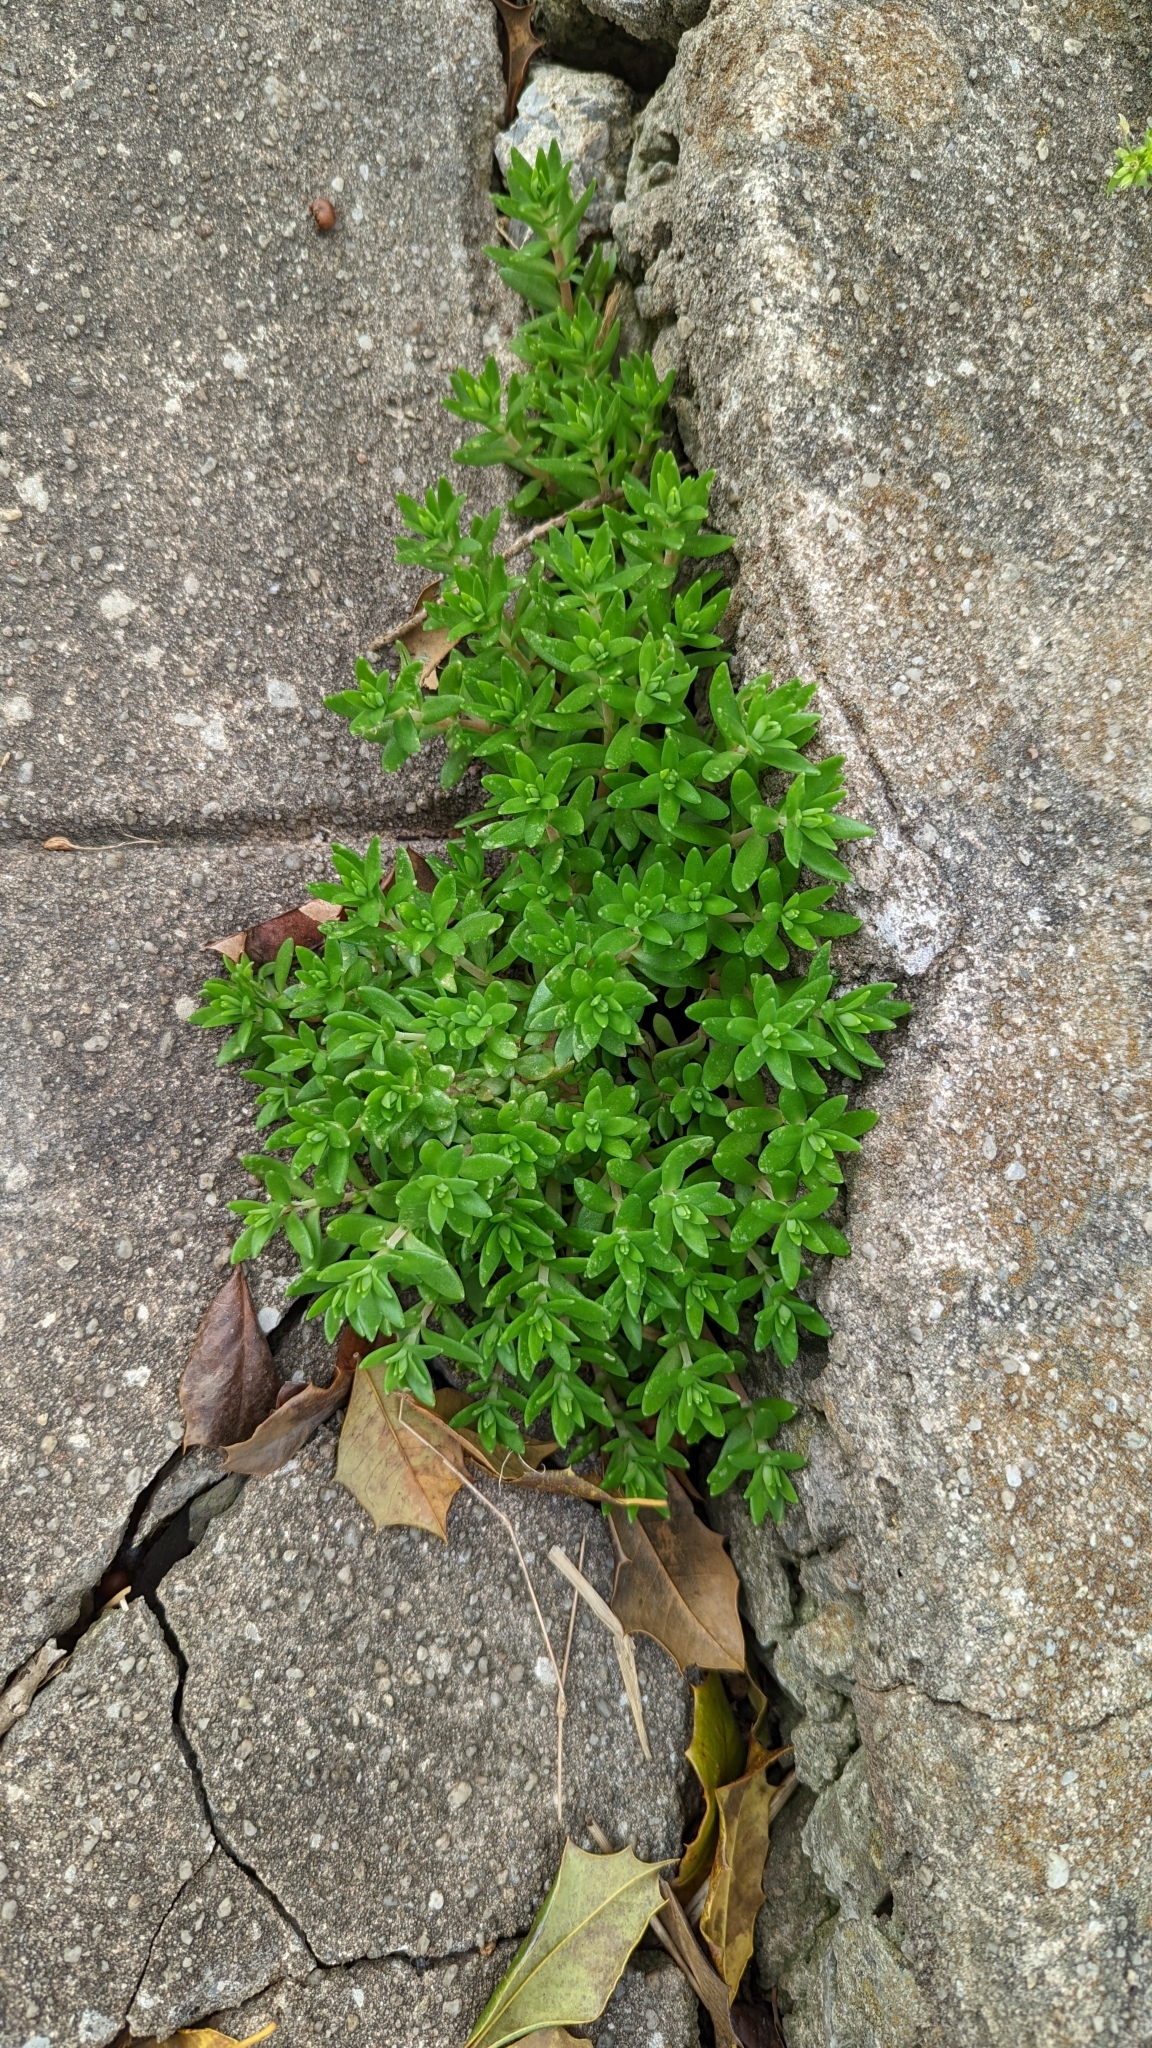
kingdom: Plantae
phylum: Tracheophyta
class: Magnoliopsida
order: Saxifragales
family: Crassulaceae
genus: Sedum
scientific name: Sedum sarmentosum
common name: Stringy stonecrop
